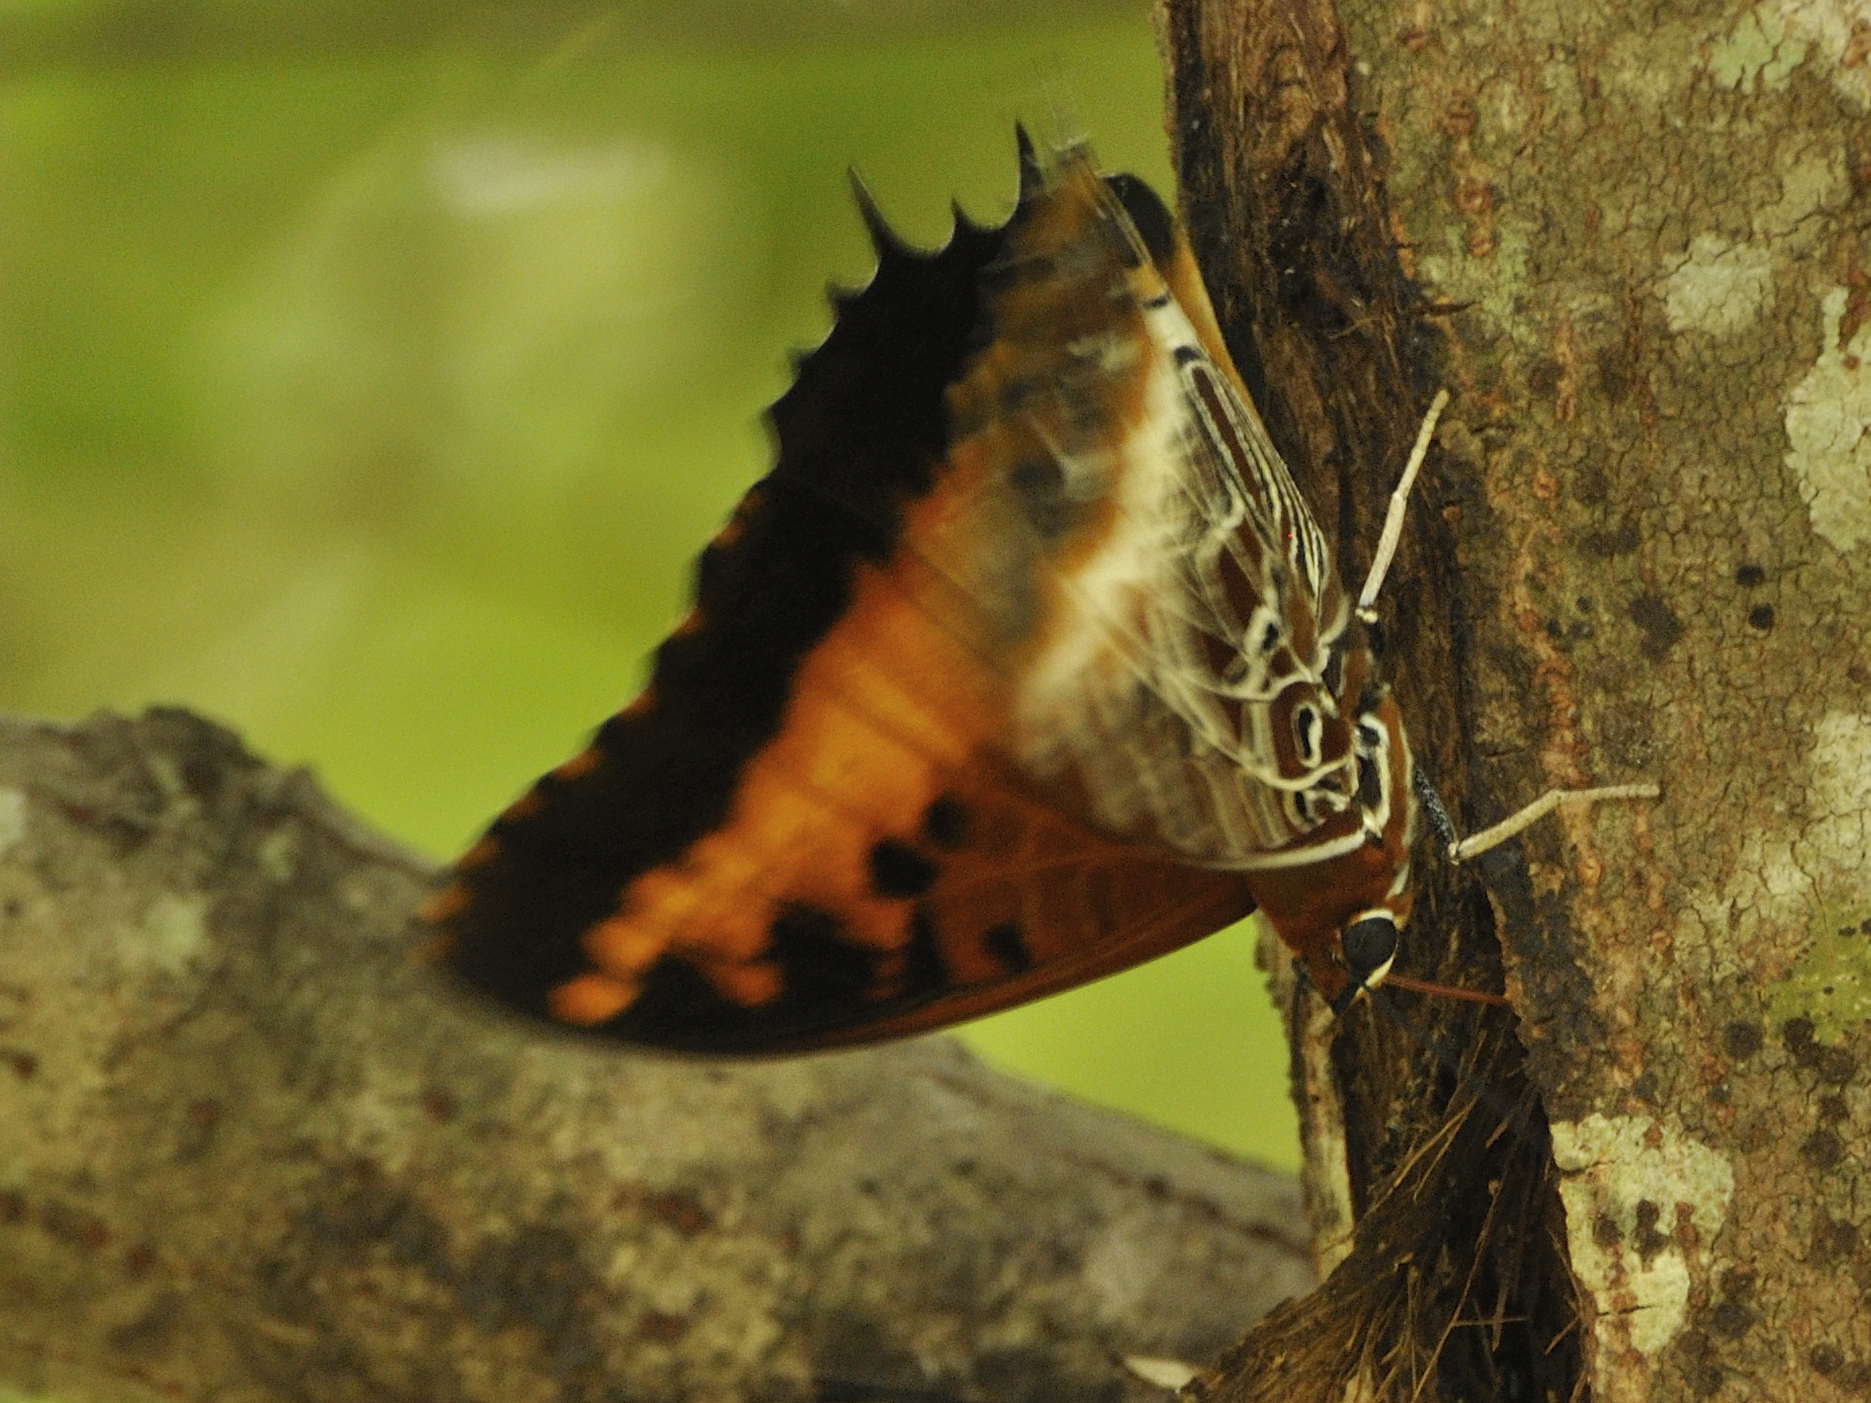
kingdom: Animalia
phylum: Arthropoda
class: Insecta
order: Lepidoptera
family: Nymphalidae
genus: Charaxes
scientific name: Charaxes pollux
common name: Black-bordered charaxes
